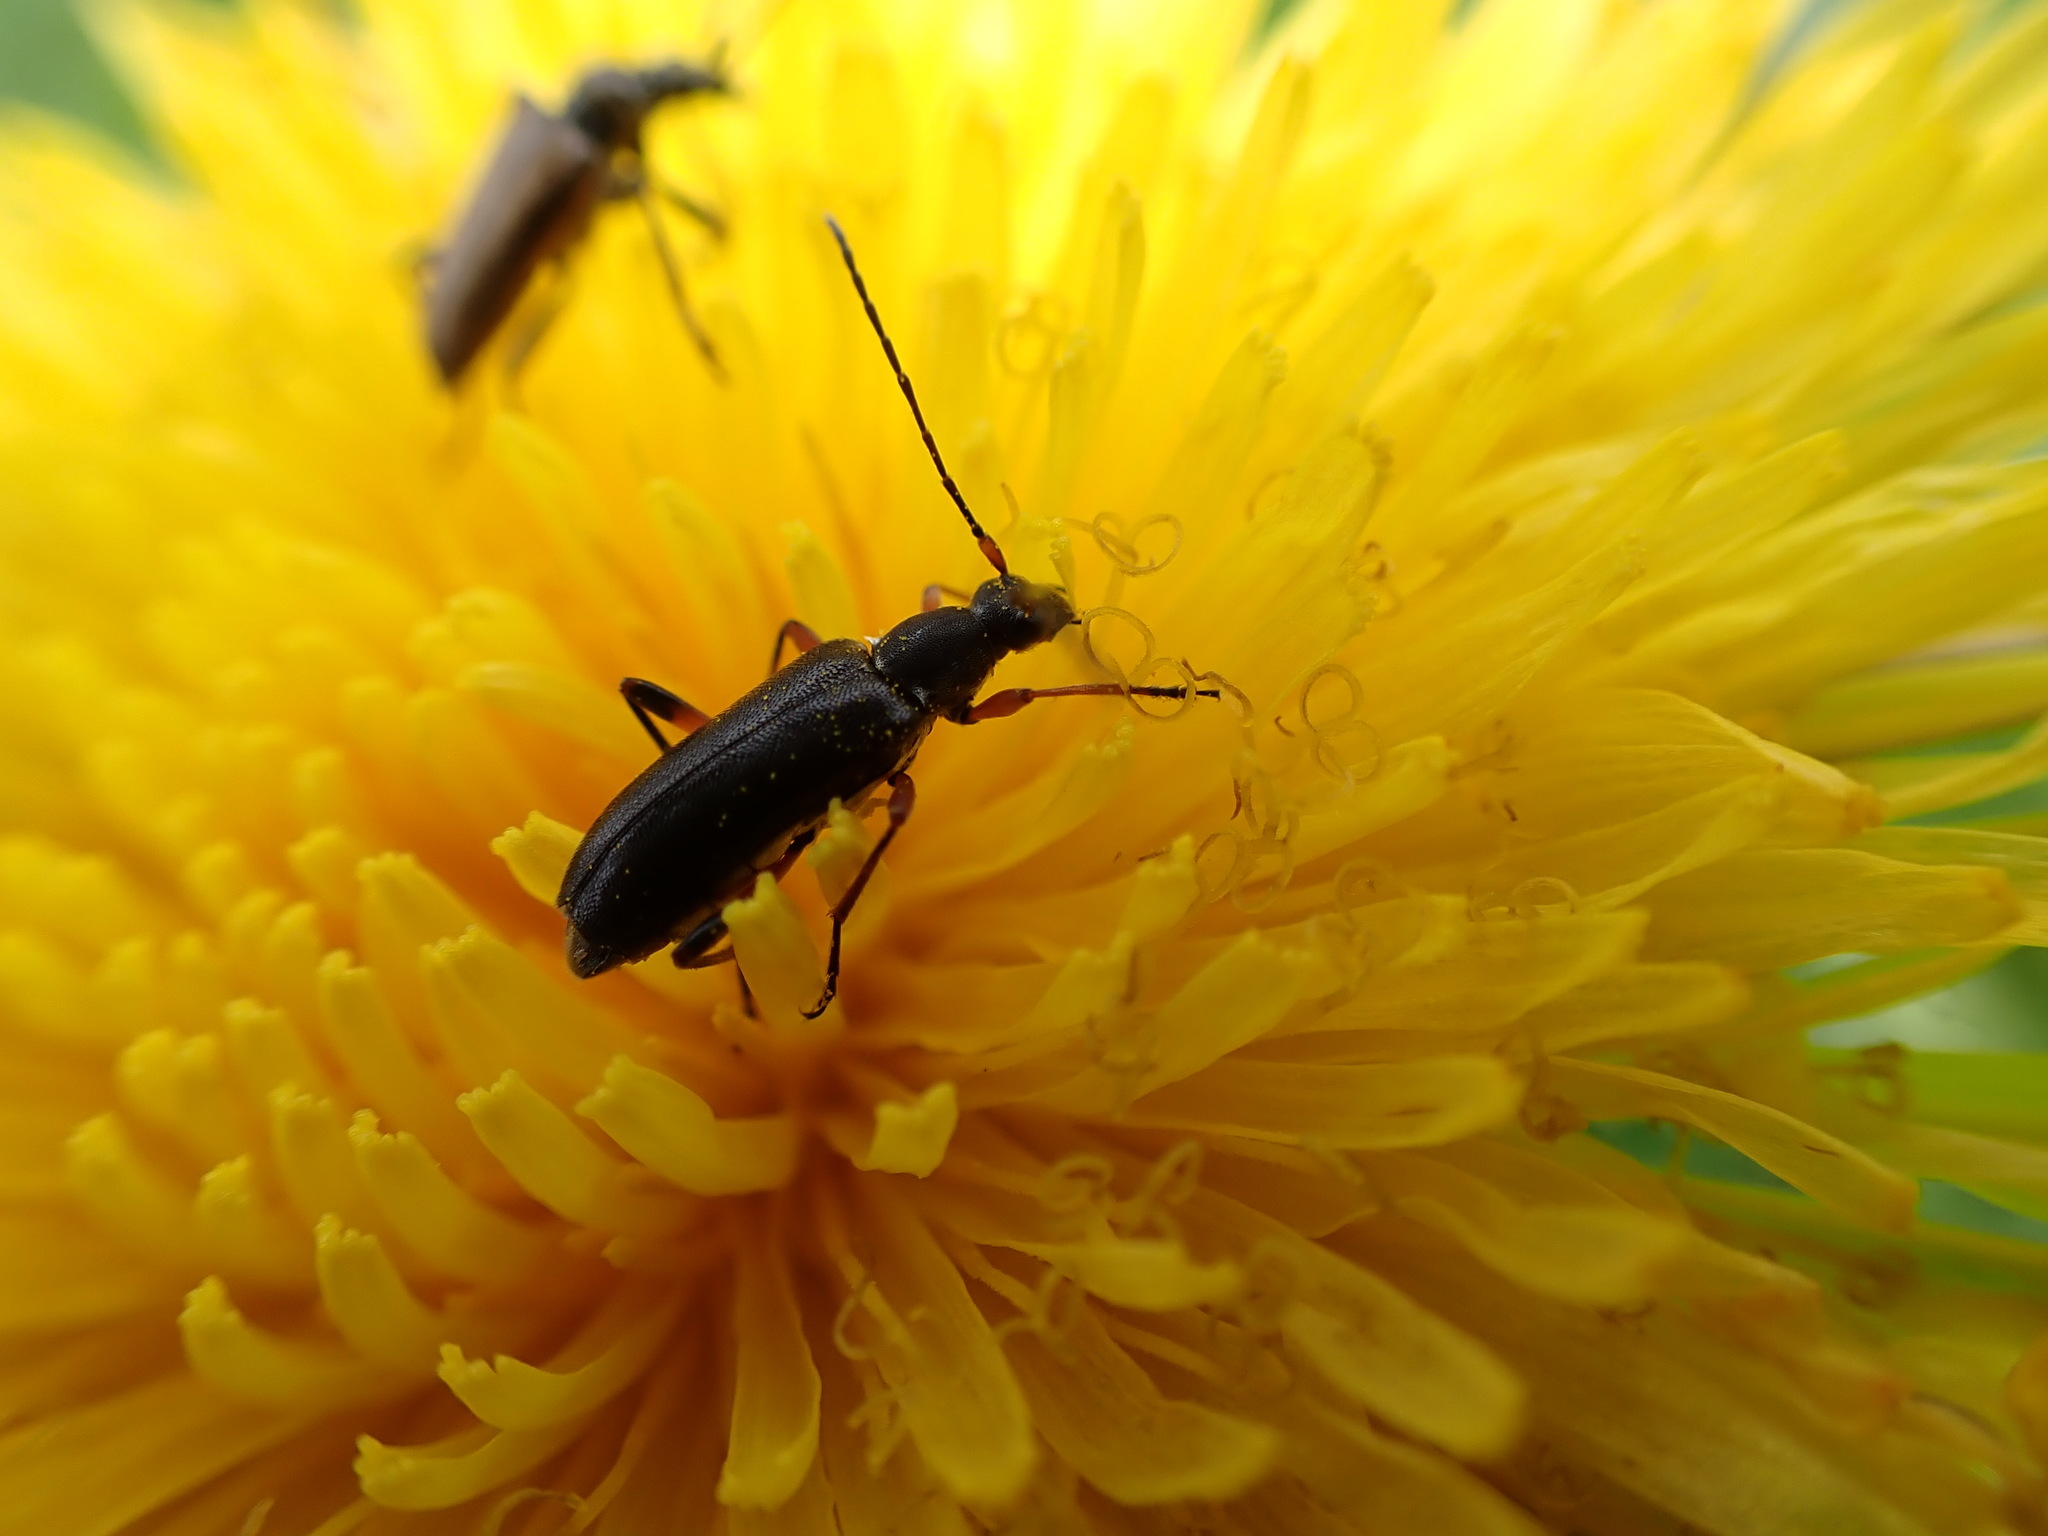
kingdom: Animalia
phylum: Arthropoda
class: Insecta
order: Coleoptera
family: Cerambycidae
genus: Grammoptera
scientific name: Grammoptera subargentata
